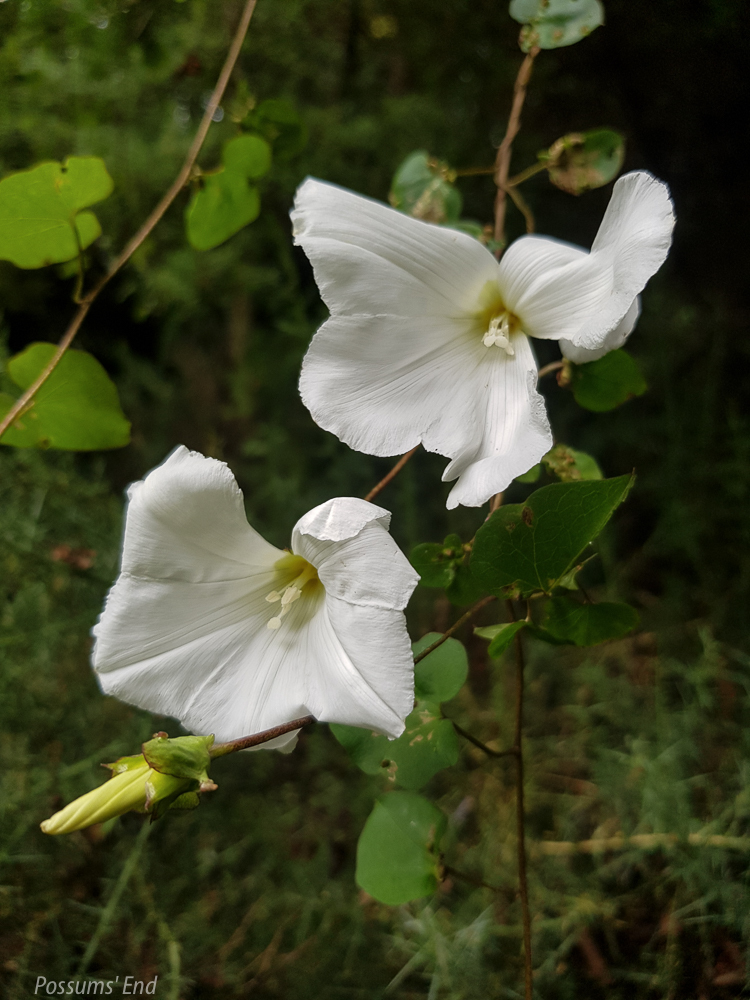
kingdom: Plantae
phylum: Tracheophyta
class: Magnoliopsida
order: Solanales
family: Convolvulaceae
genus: Calystegia
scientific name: Calystegia tuguriorum
